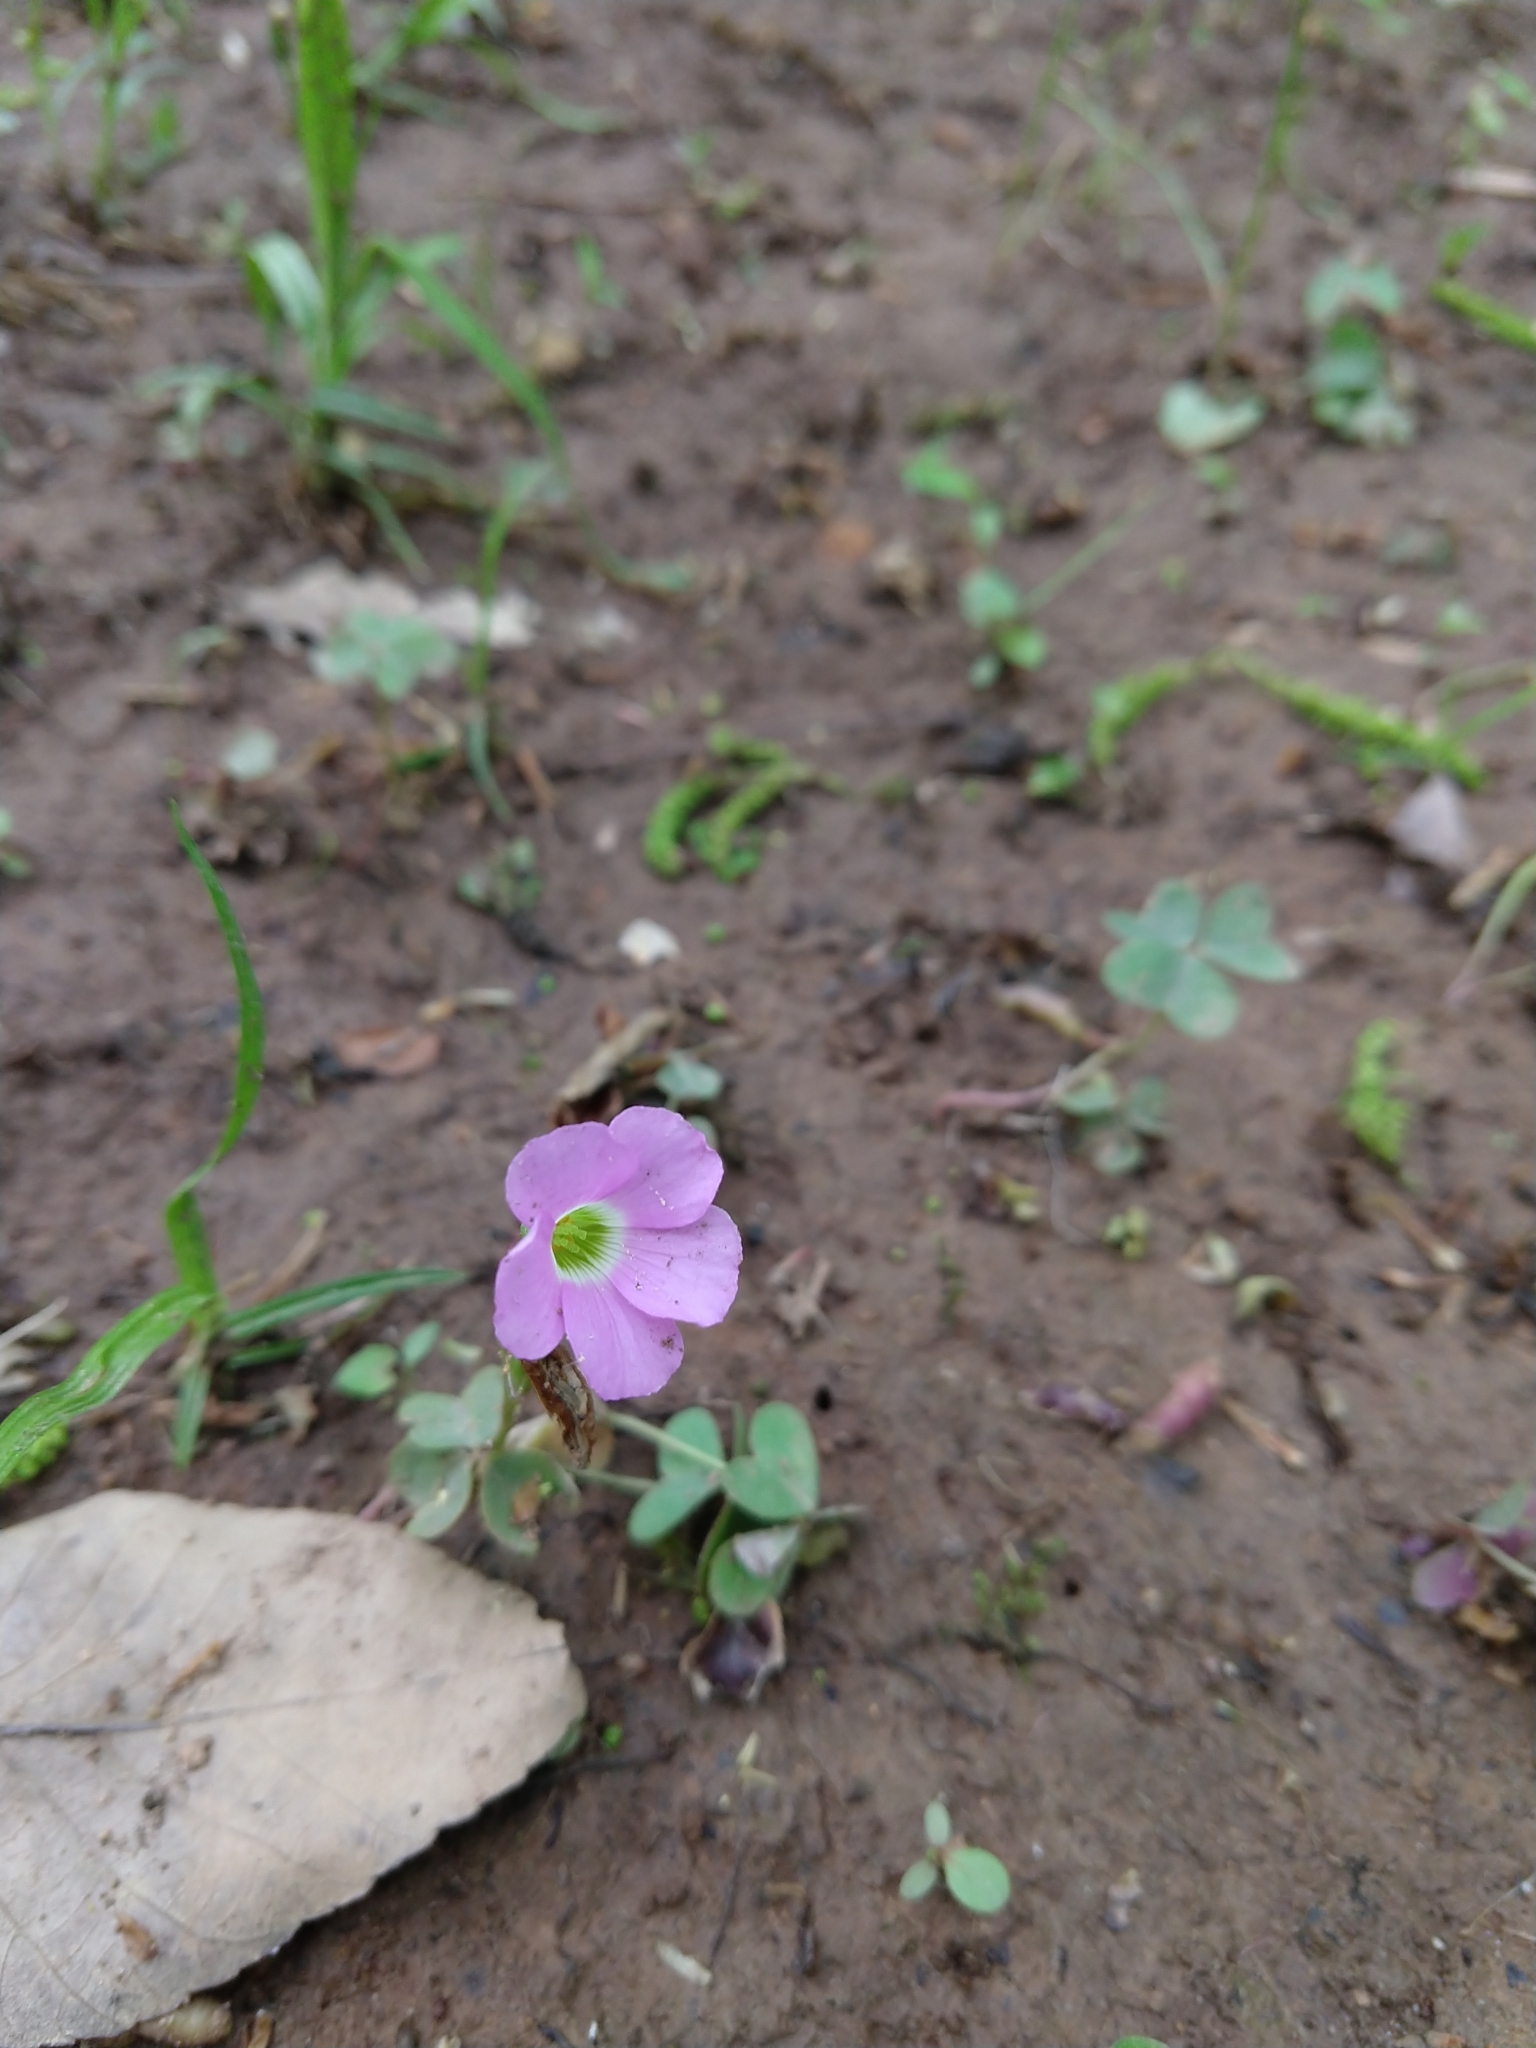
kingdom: Plantae
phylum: Tracheophyta
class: Magnoliopsida
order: Oxalidales
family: Oxalidaceae
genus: Oxalis
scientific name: Oxalis violacea
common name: Violet wood-sorrel
